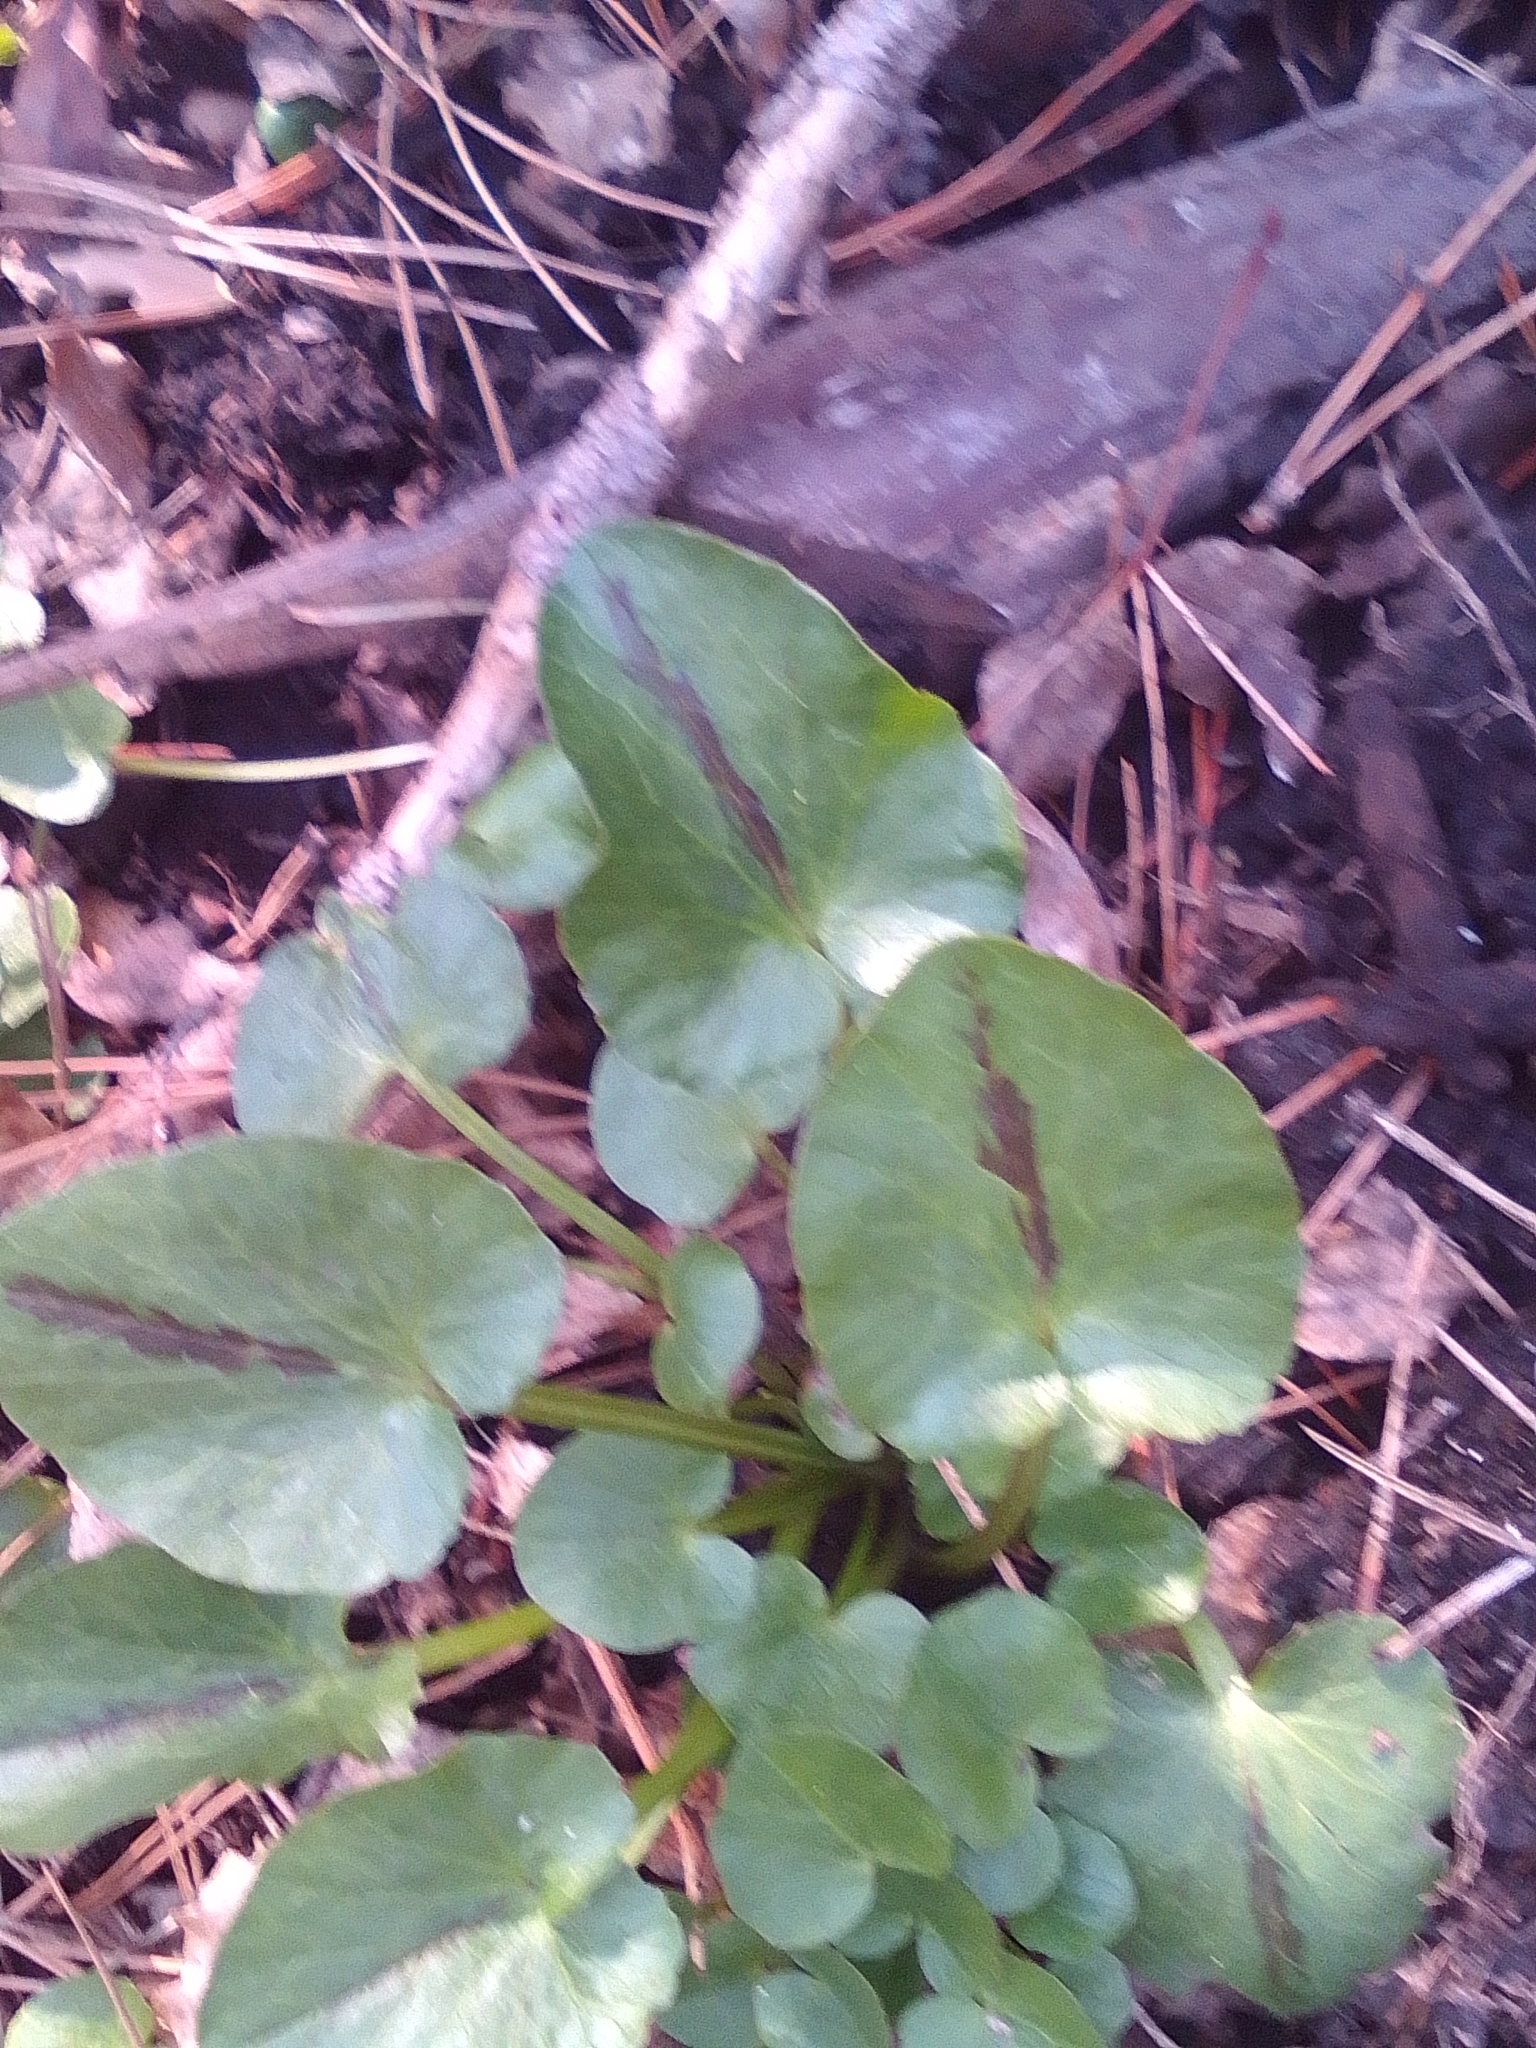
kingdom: Plantae
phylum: Tracheophyta
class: Magnoliopsida
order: Ranunculales
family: Ranunculaceae
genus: Ficaria
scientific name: Ficaria verna
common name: Lesser celandine
